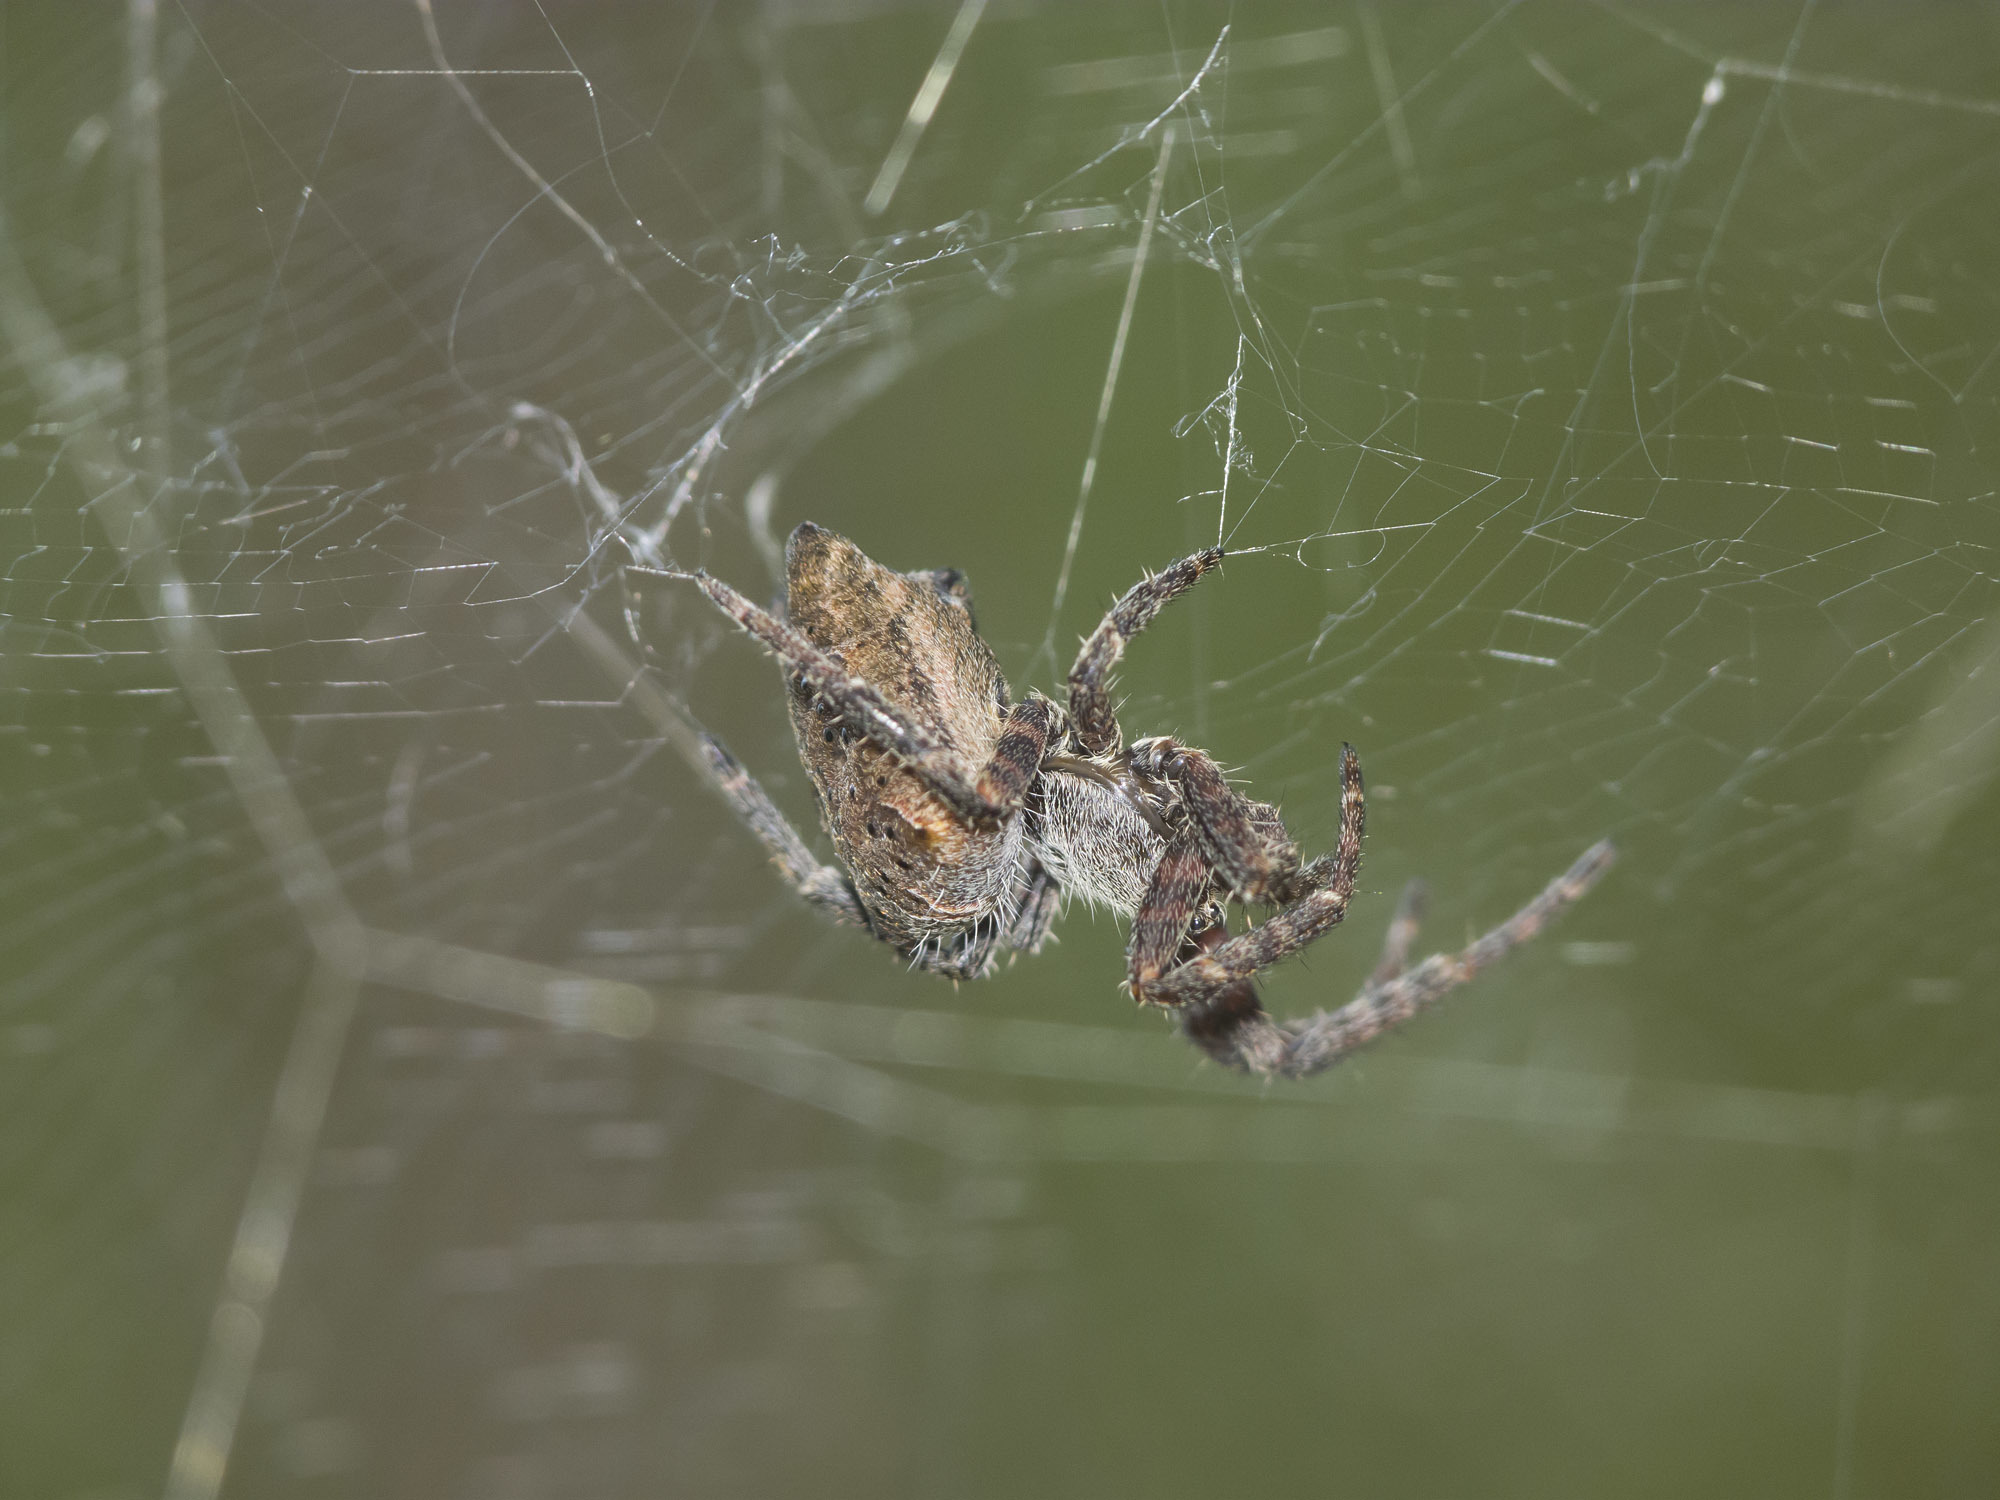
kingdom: Animalia
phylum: Arthropoda
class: Arachnida
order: Araneae
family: Araneidae
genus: Cyrtophora
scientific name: Cyrtophora citricola
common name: Orb weavers
